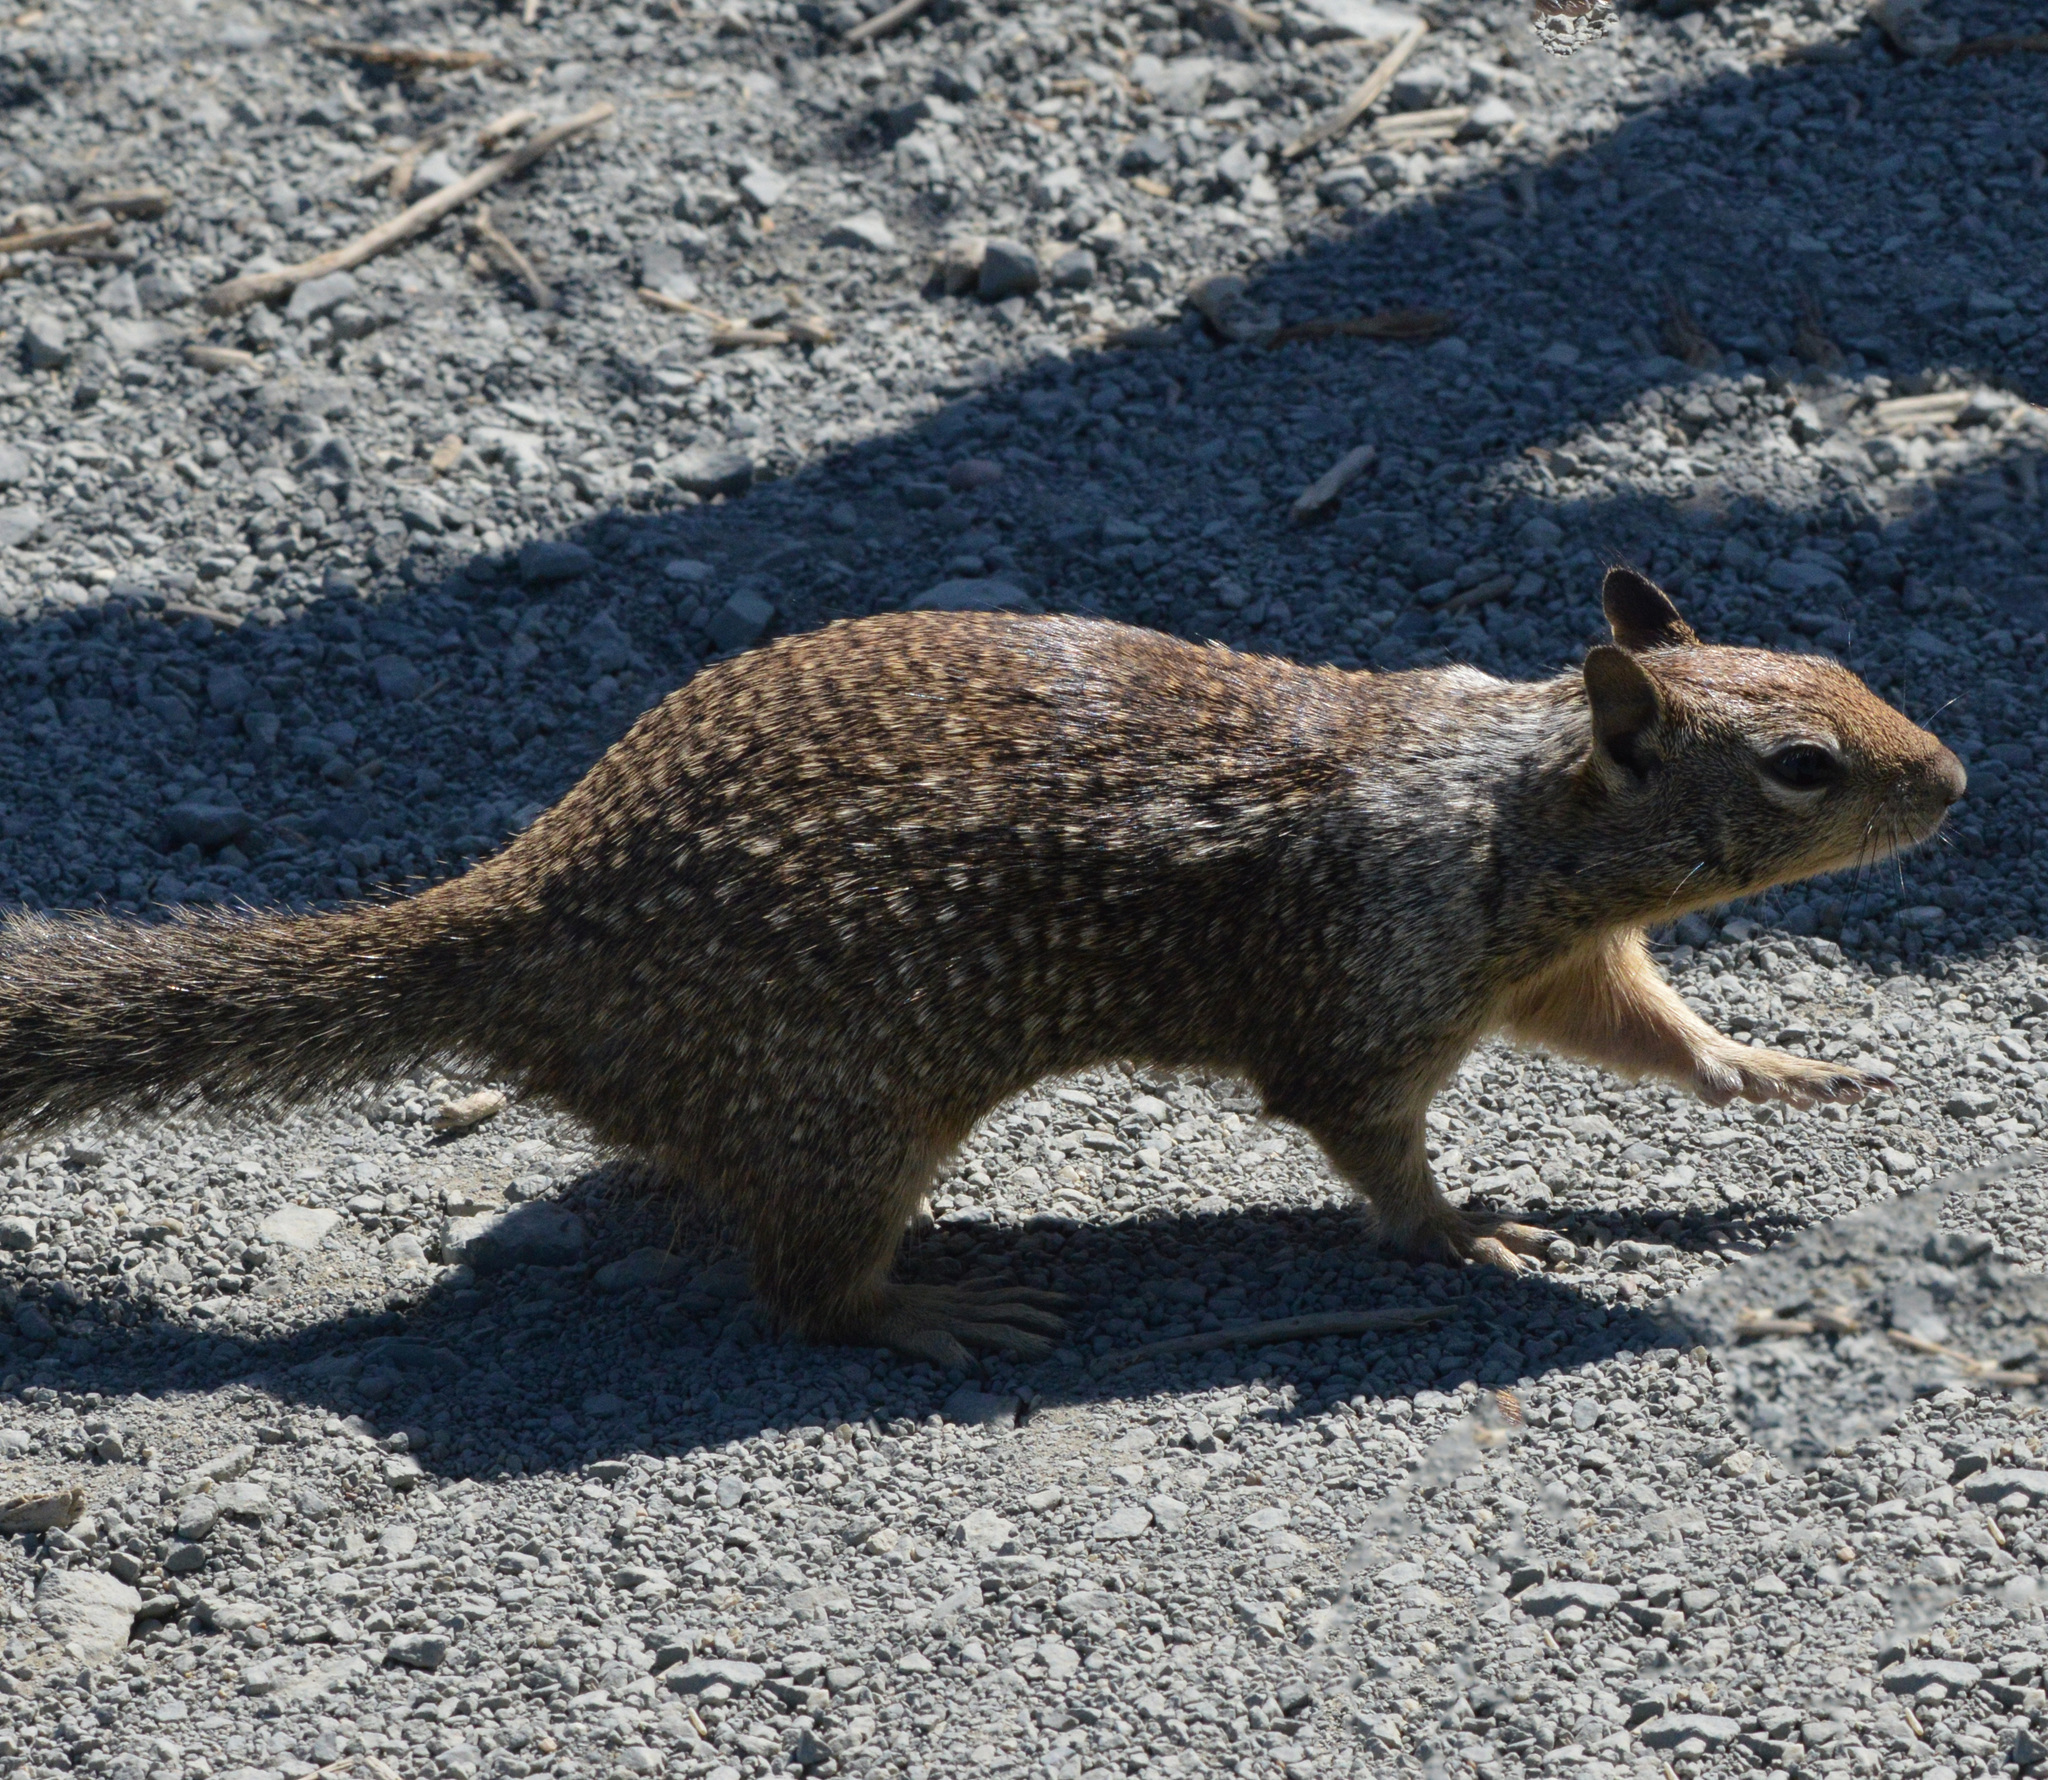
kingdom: Animalia
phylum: Chordata
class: Mammalia
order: Rodentia
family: Sciuridae
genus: Otospermophilus
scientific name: Otospermophilus beecheyi
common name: California ground squirrel
